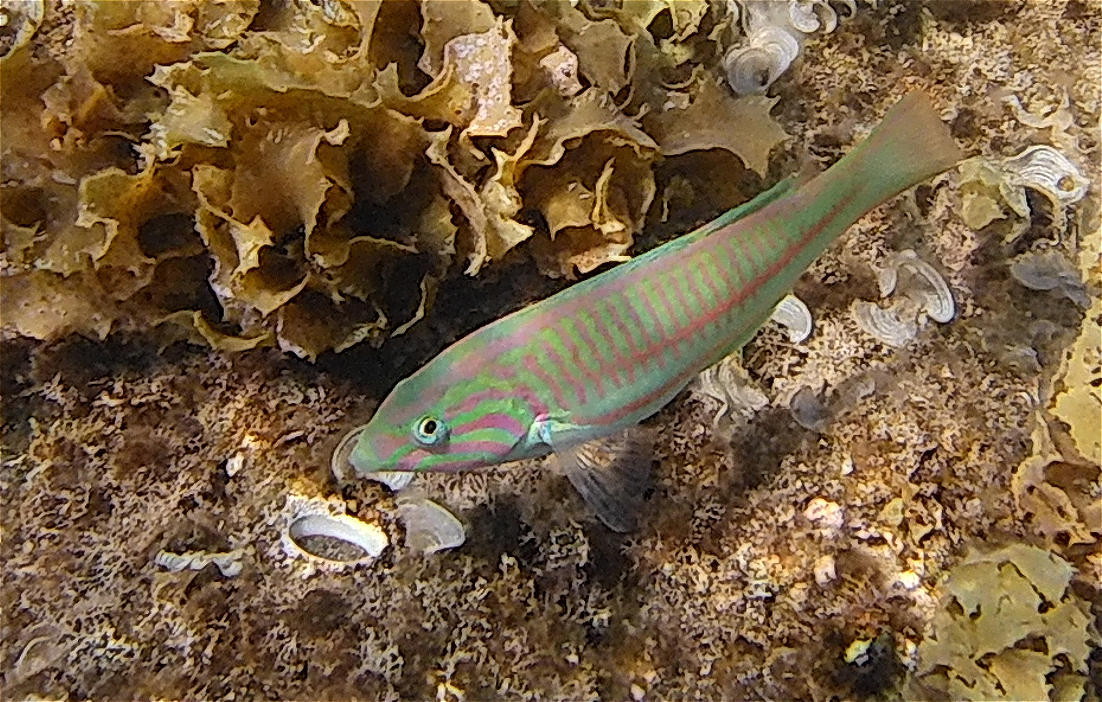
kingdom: Animalia
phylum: Chordata
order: Perciformes
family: Labridae
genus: Thalassoma
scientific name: Thalassoma rueppellii
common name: Klunzinger's wrasse
